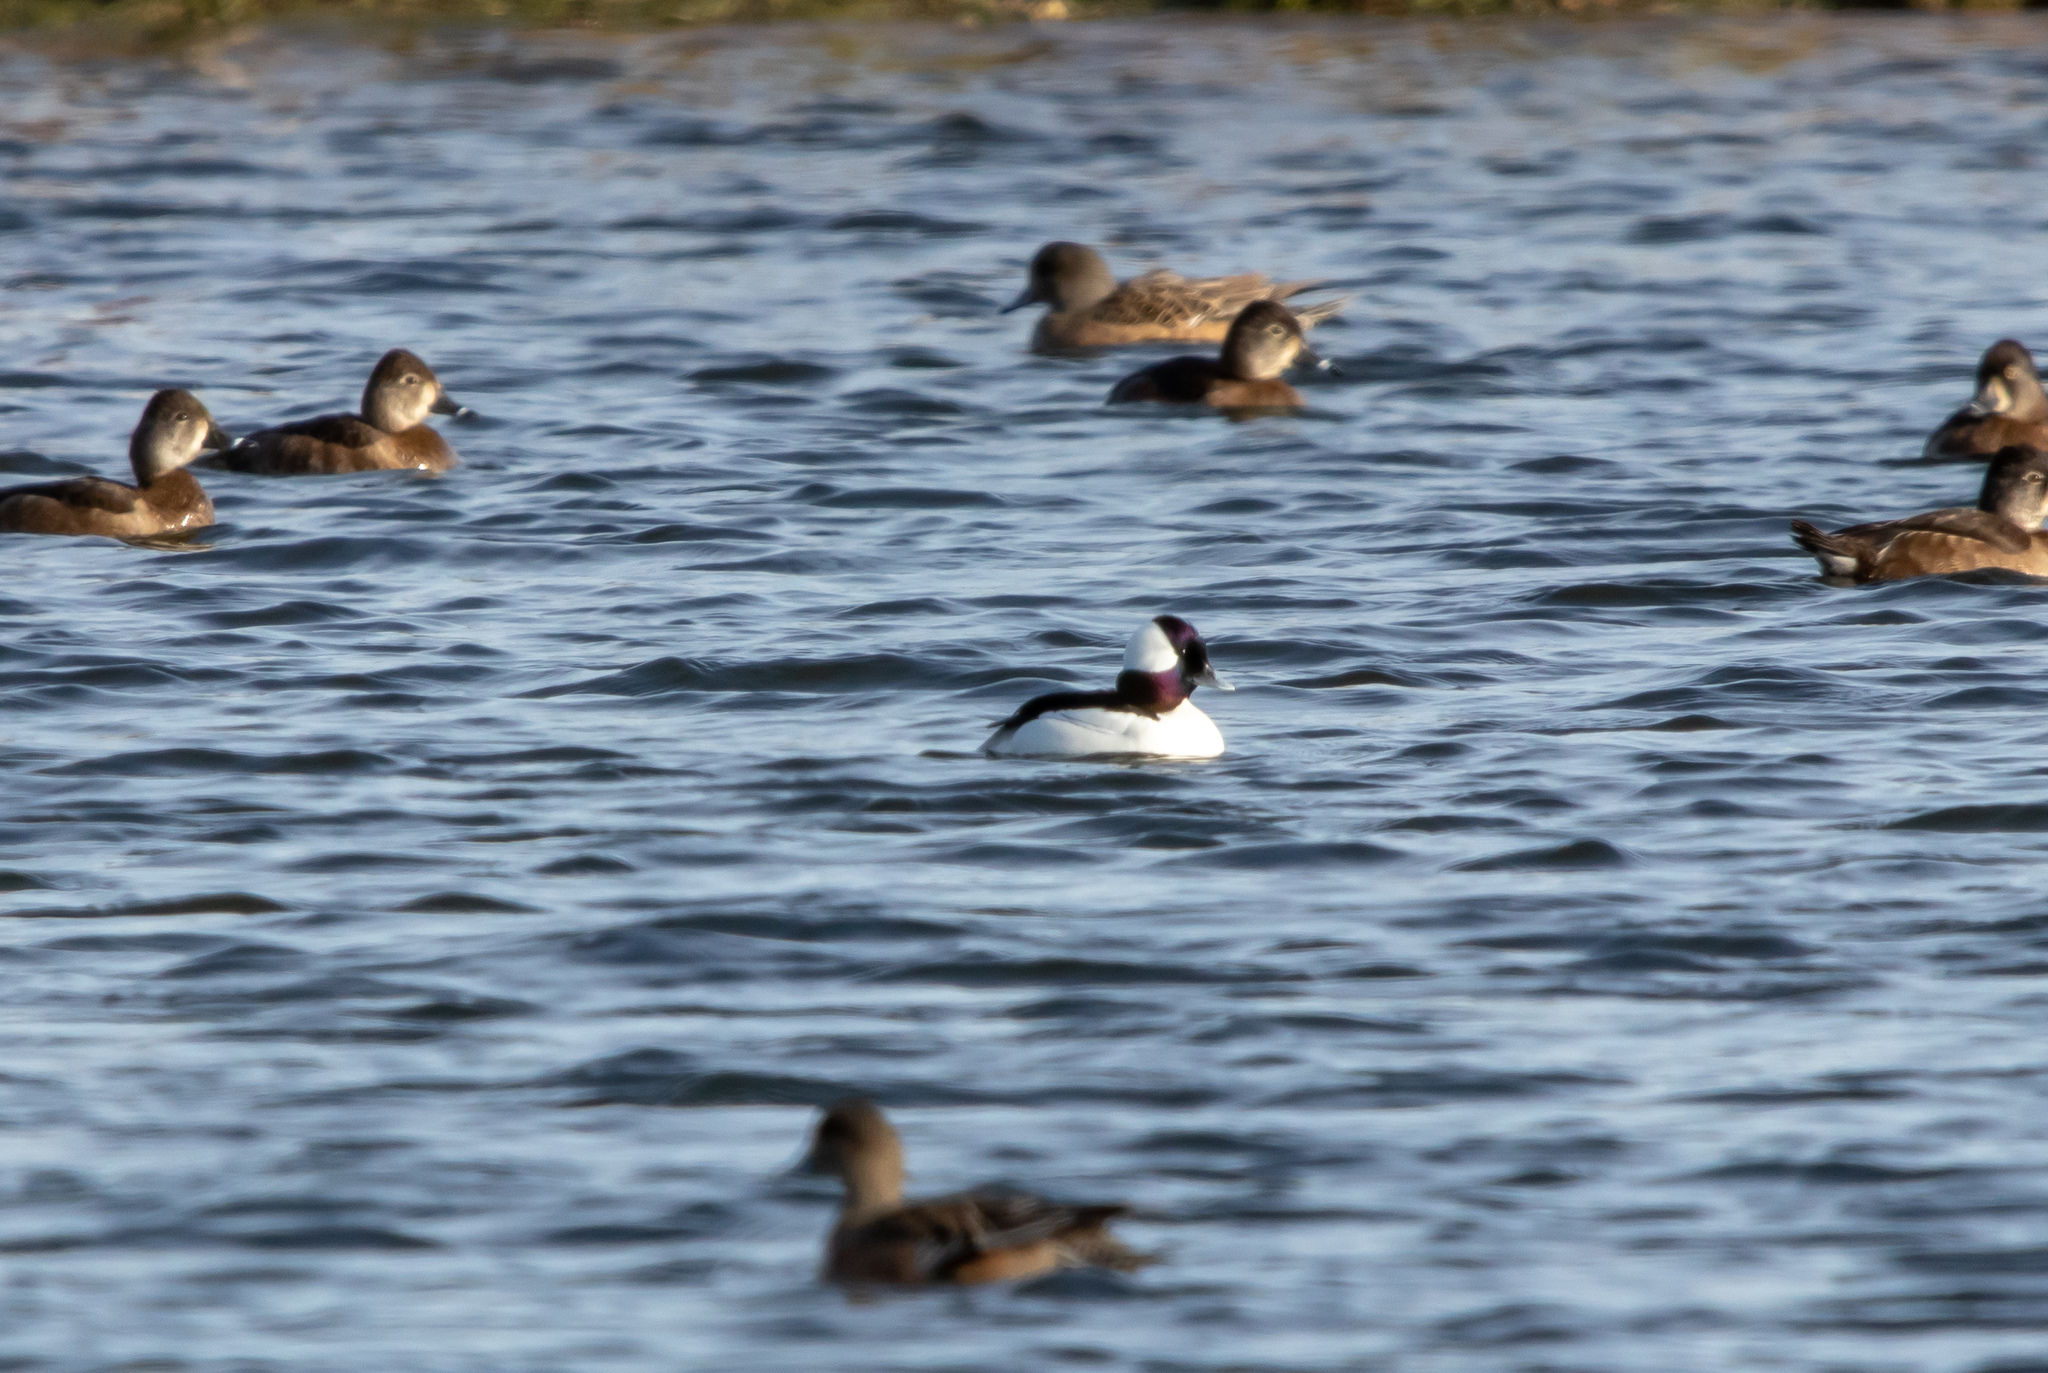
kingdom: Animalia
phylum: Chordata
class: Aves
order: Anseriformes
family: Anatidae
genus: Bucephala
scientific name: Bucephala albeola
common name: Bufflehead
